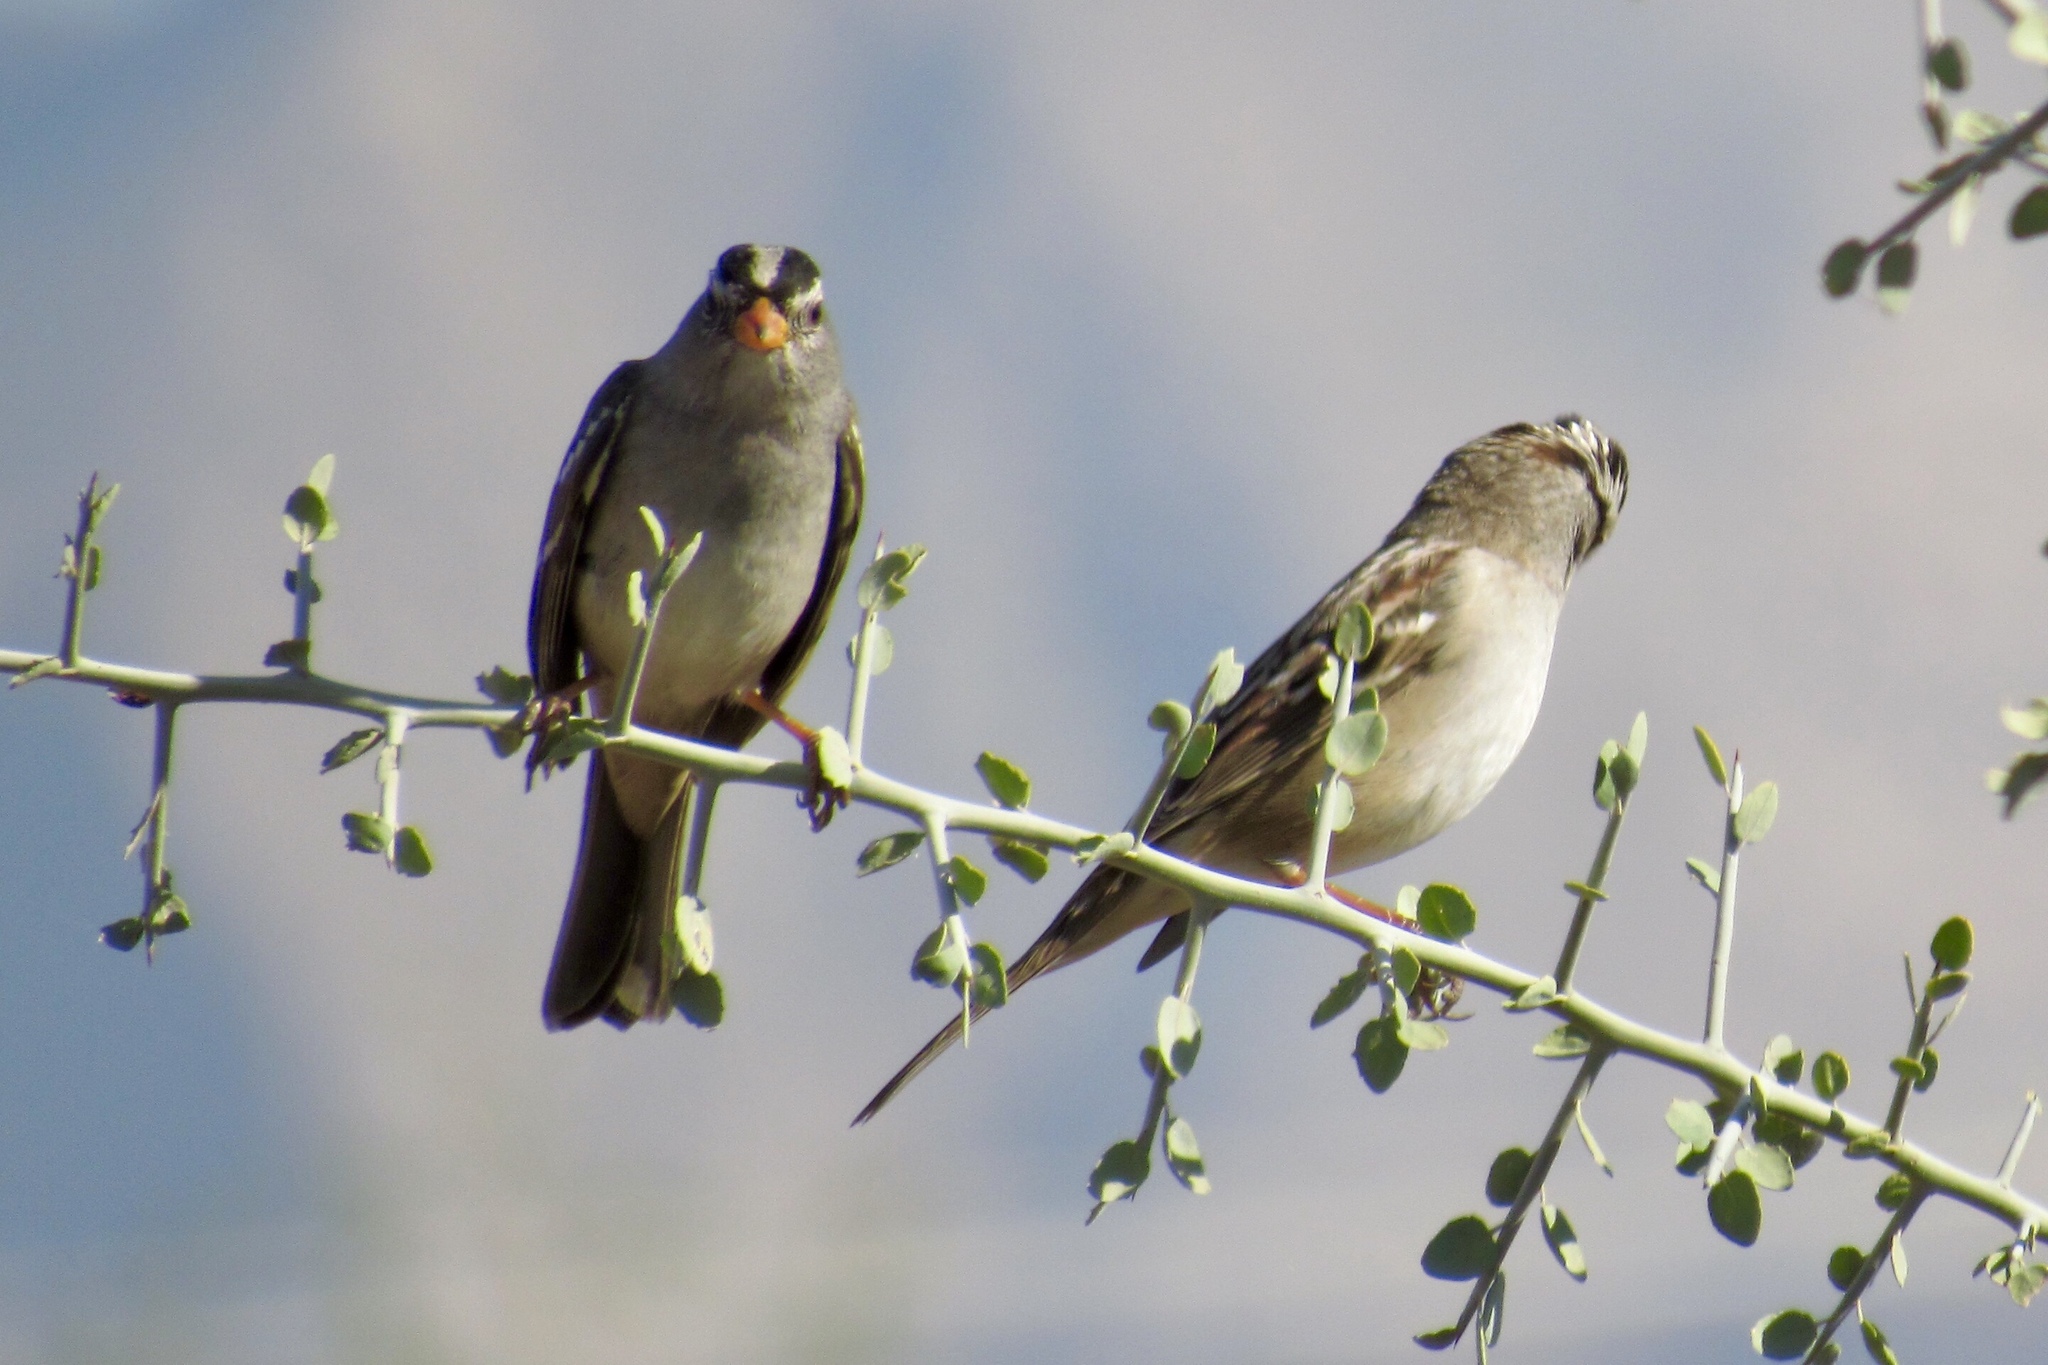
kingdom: Animalia
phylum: Chordata
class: Aves
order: Passeriformes
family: Passerellidae
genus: Zonotrichia
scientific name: Zonotrichia leucophrys
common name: White-crowned sparrow
